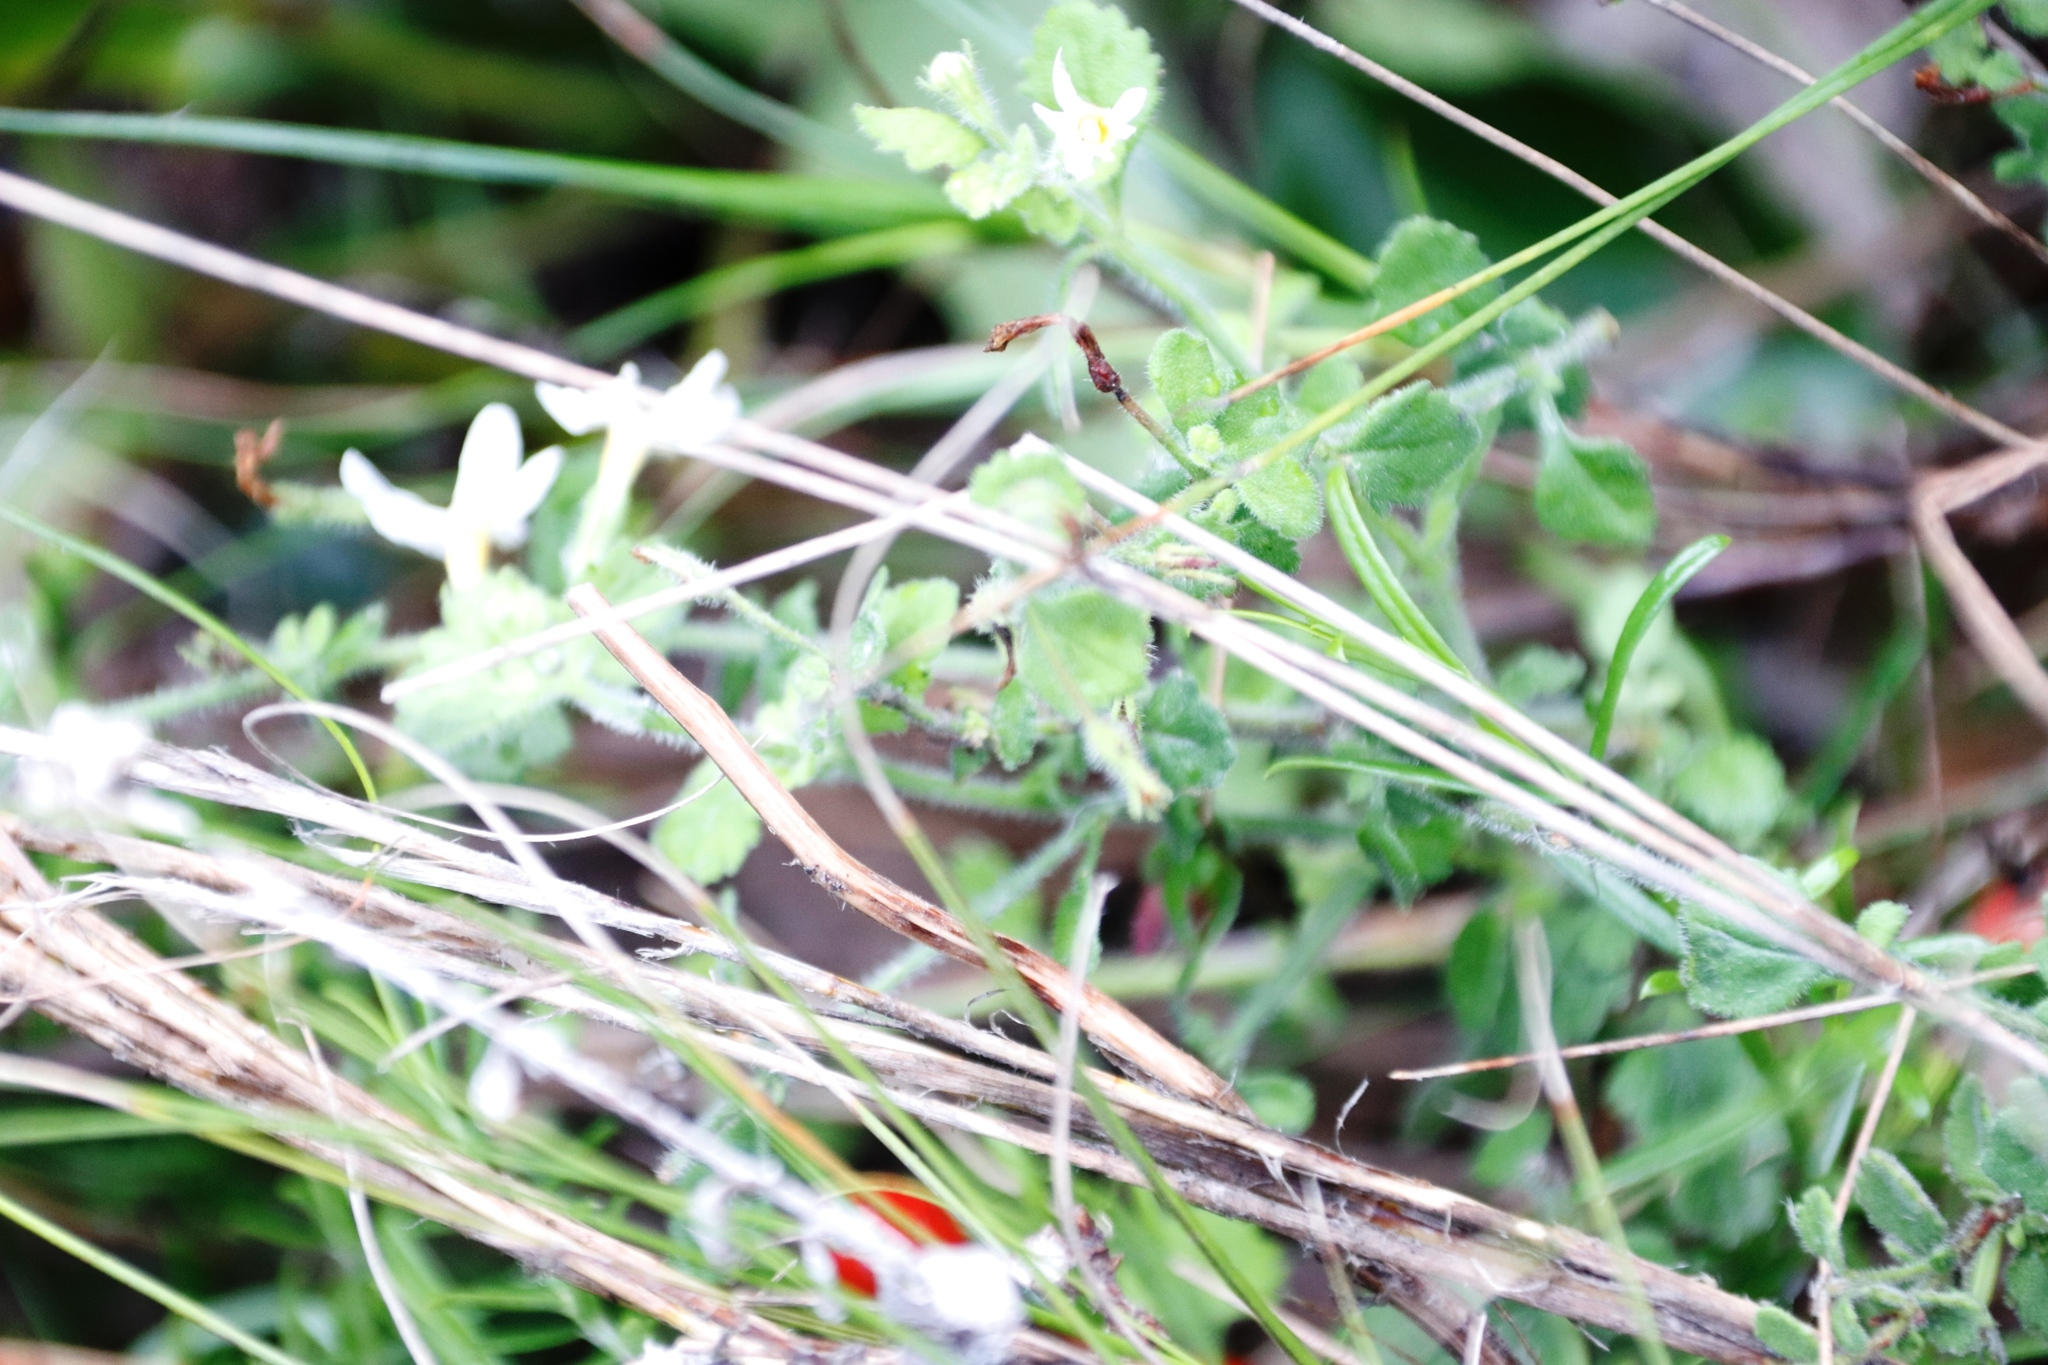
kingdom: Plantae
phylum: Tracheophyta
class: Magnoliopsida
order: Lamiales
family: Scrophulariaceae
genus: Chaenostoma
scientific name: Chaenostoma hispidum
